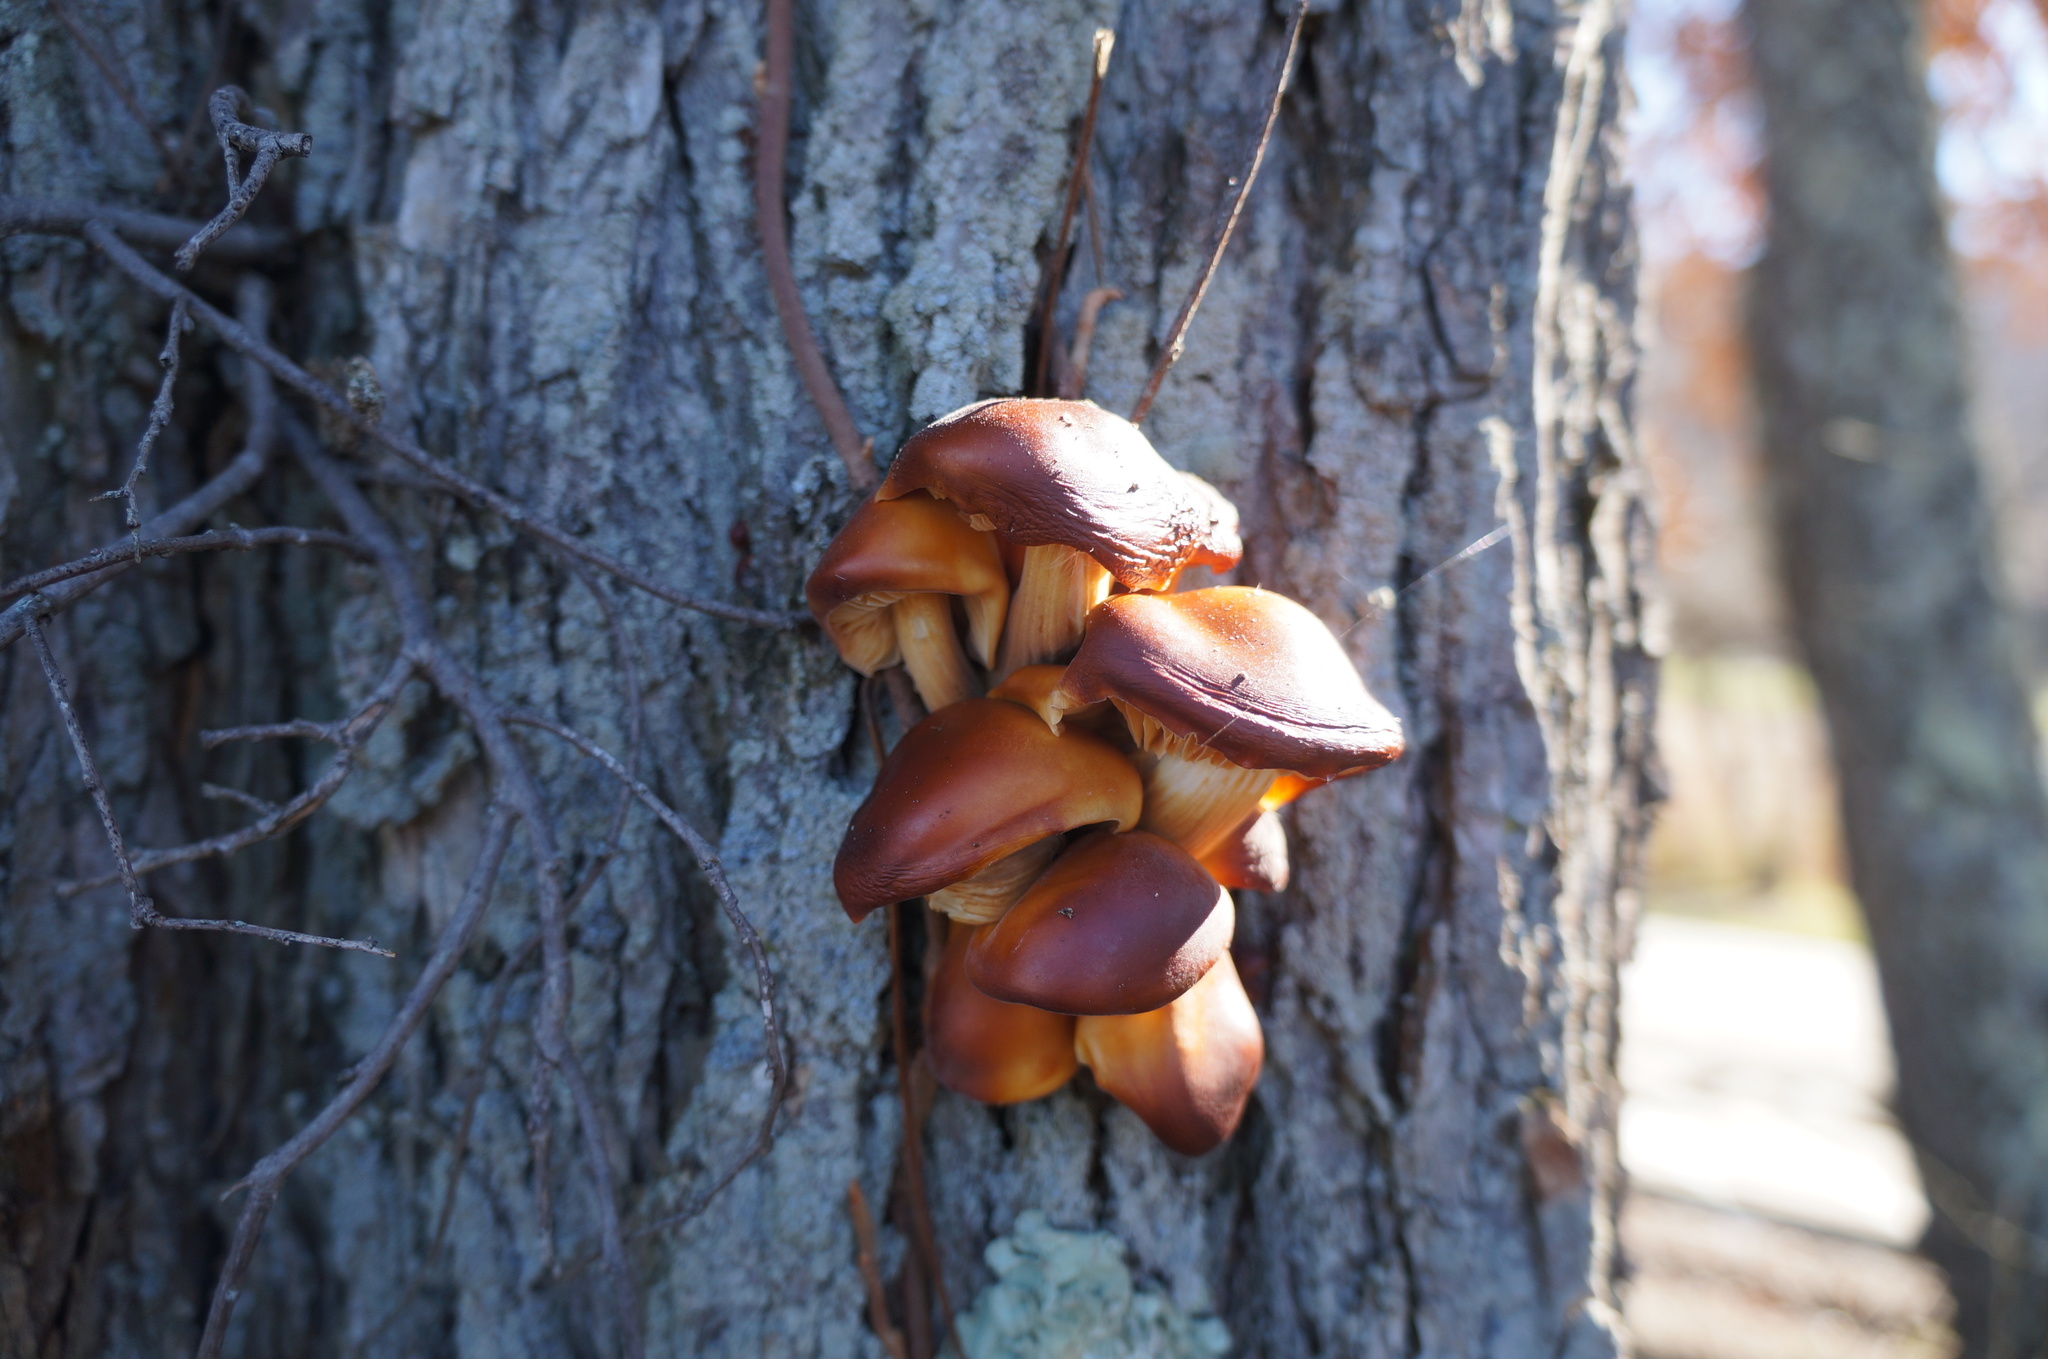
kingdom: Fungi
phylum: Basidiomycota
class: Agaricomycetes
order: Agaricales
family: Physalacriaceae
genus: Flammulina
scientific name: Flammulina velutipes
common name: Velvet shank
